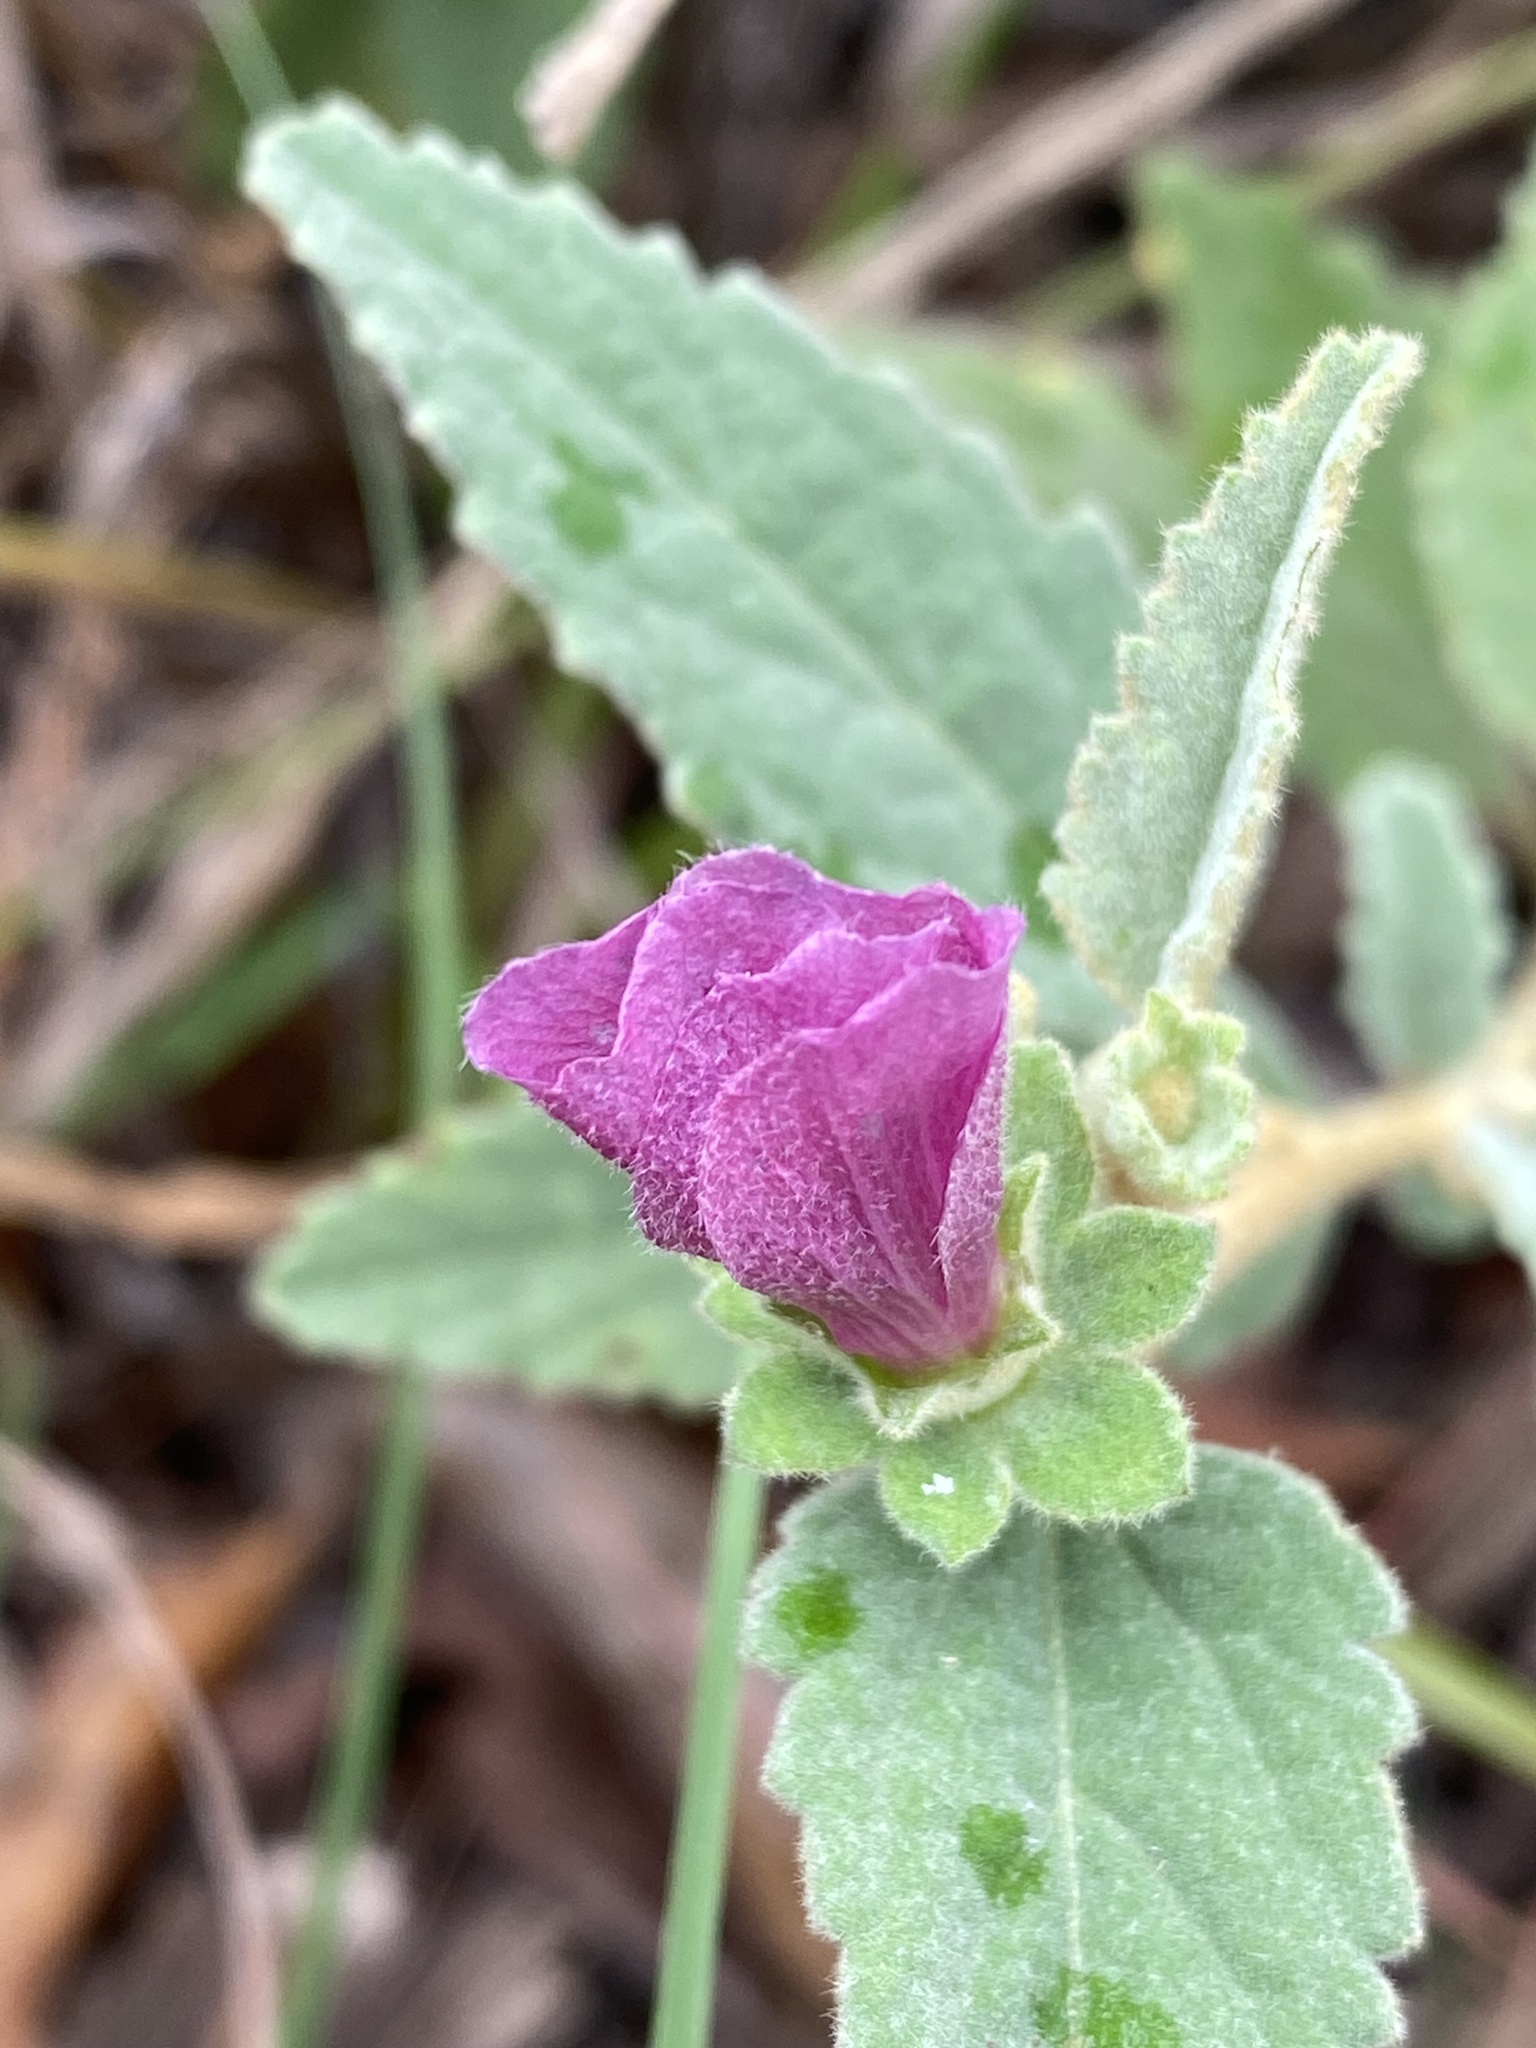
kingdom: Plantae
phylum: Tracheophyta
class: Magnoliopsida
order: Malvales
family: Malvaceae
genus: Hibiscus
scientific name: Hibiscus sturtii
